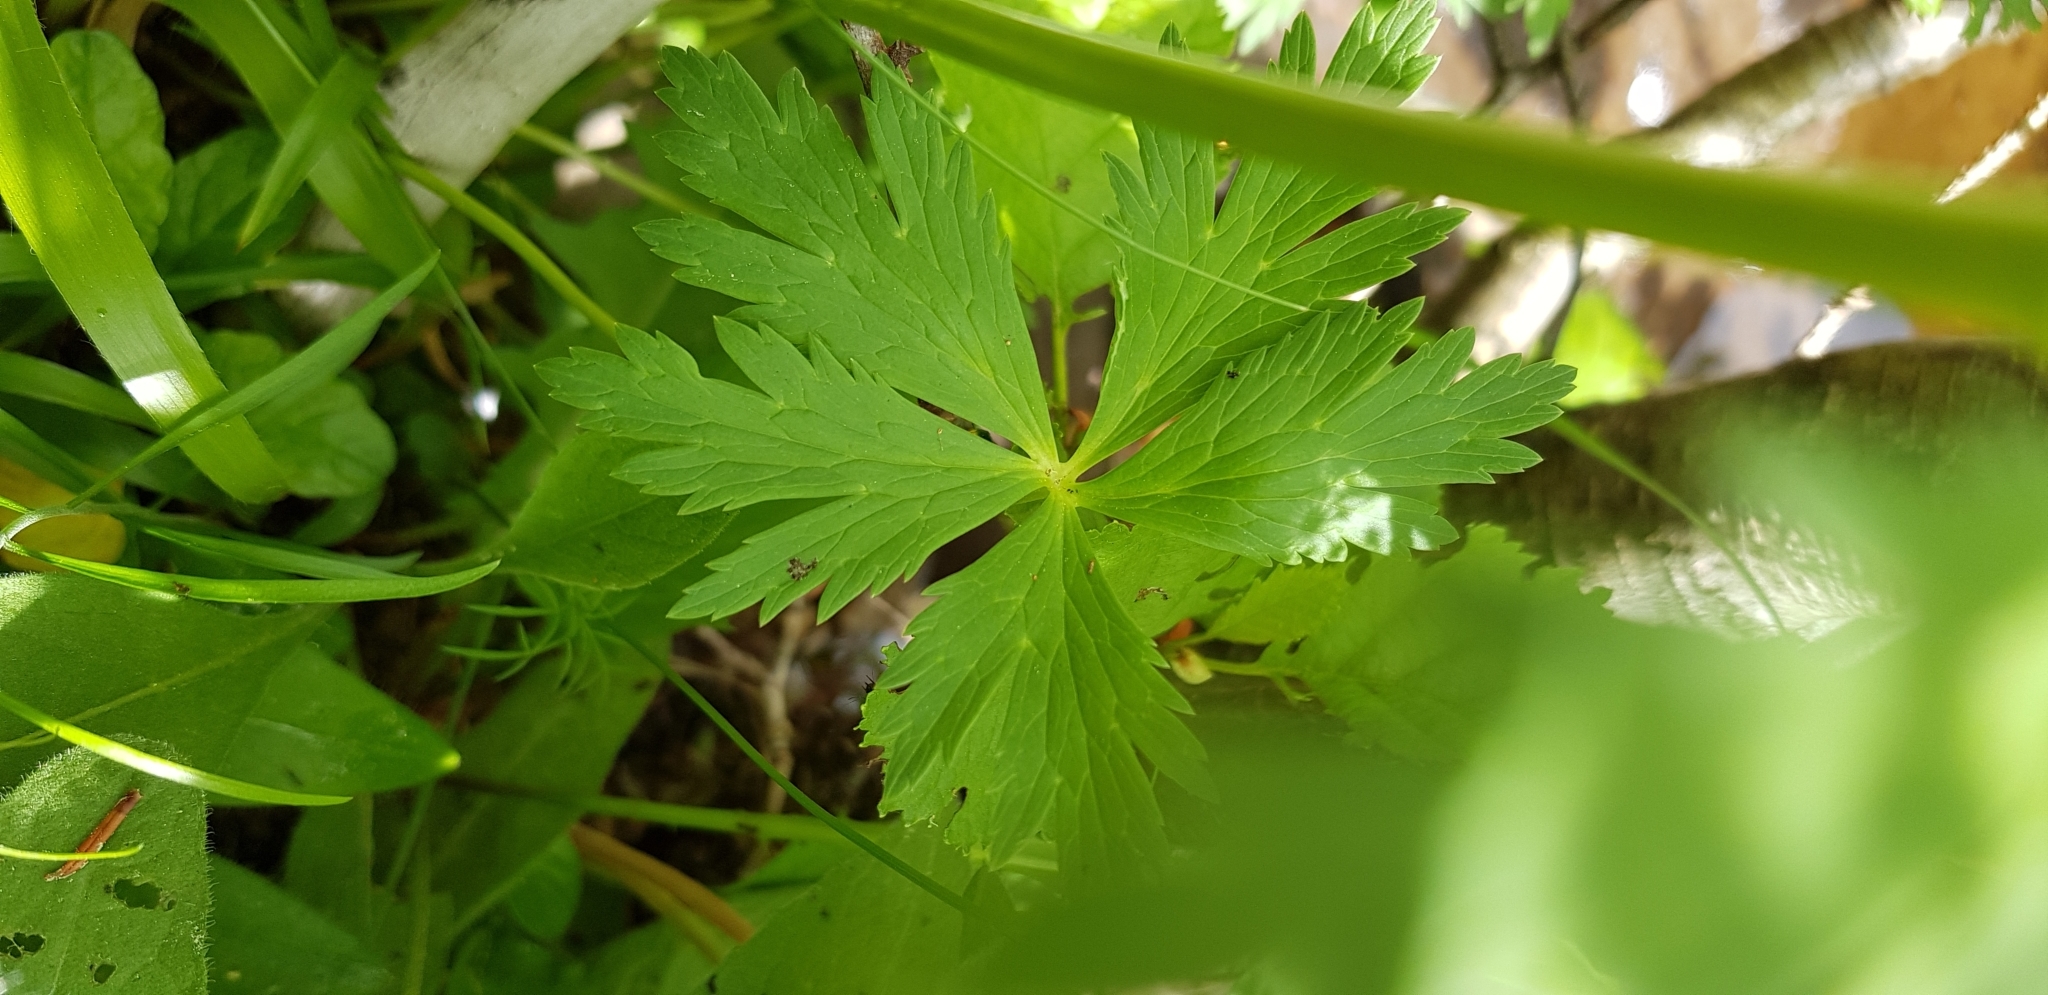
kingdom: Plantae
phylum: Tracheophyta
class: Magnoliopsida
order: Ranunculales
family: Ranunculaceae
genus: Trollius
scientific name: Trollius europaeus
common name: European globeflower
